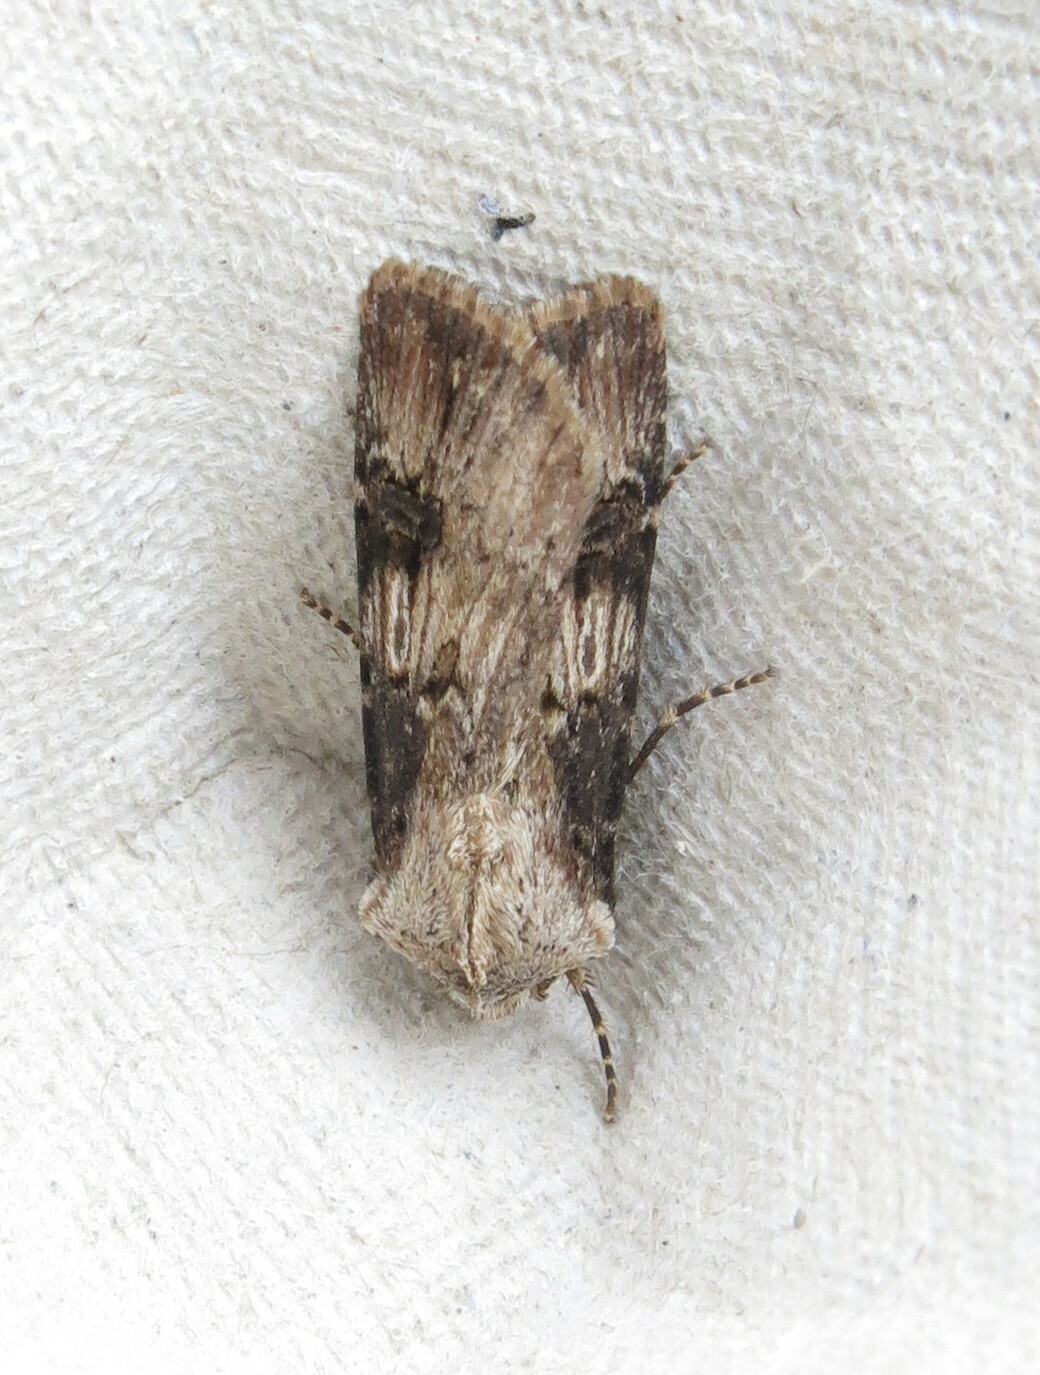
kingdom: Animalia
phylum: Arthropoda
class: Insecta
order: Lepidoptera
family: Noctuidae
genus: Agrotis
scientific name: Agrotis puta
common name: Shuttle-shaped dart
